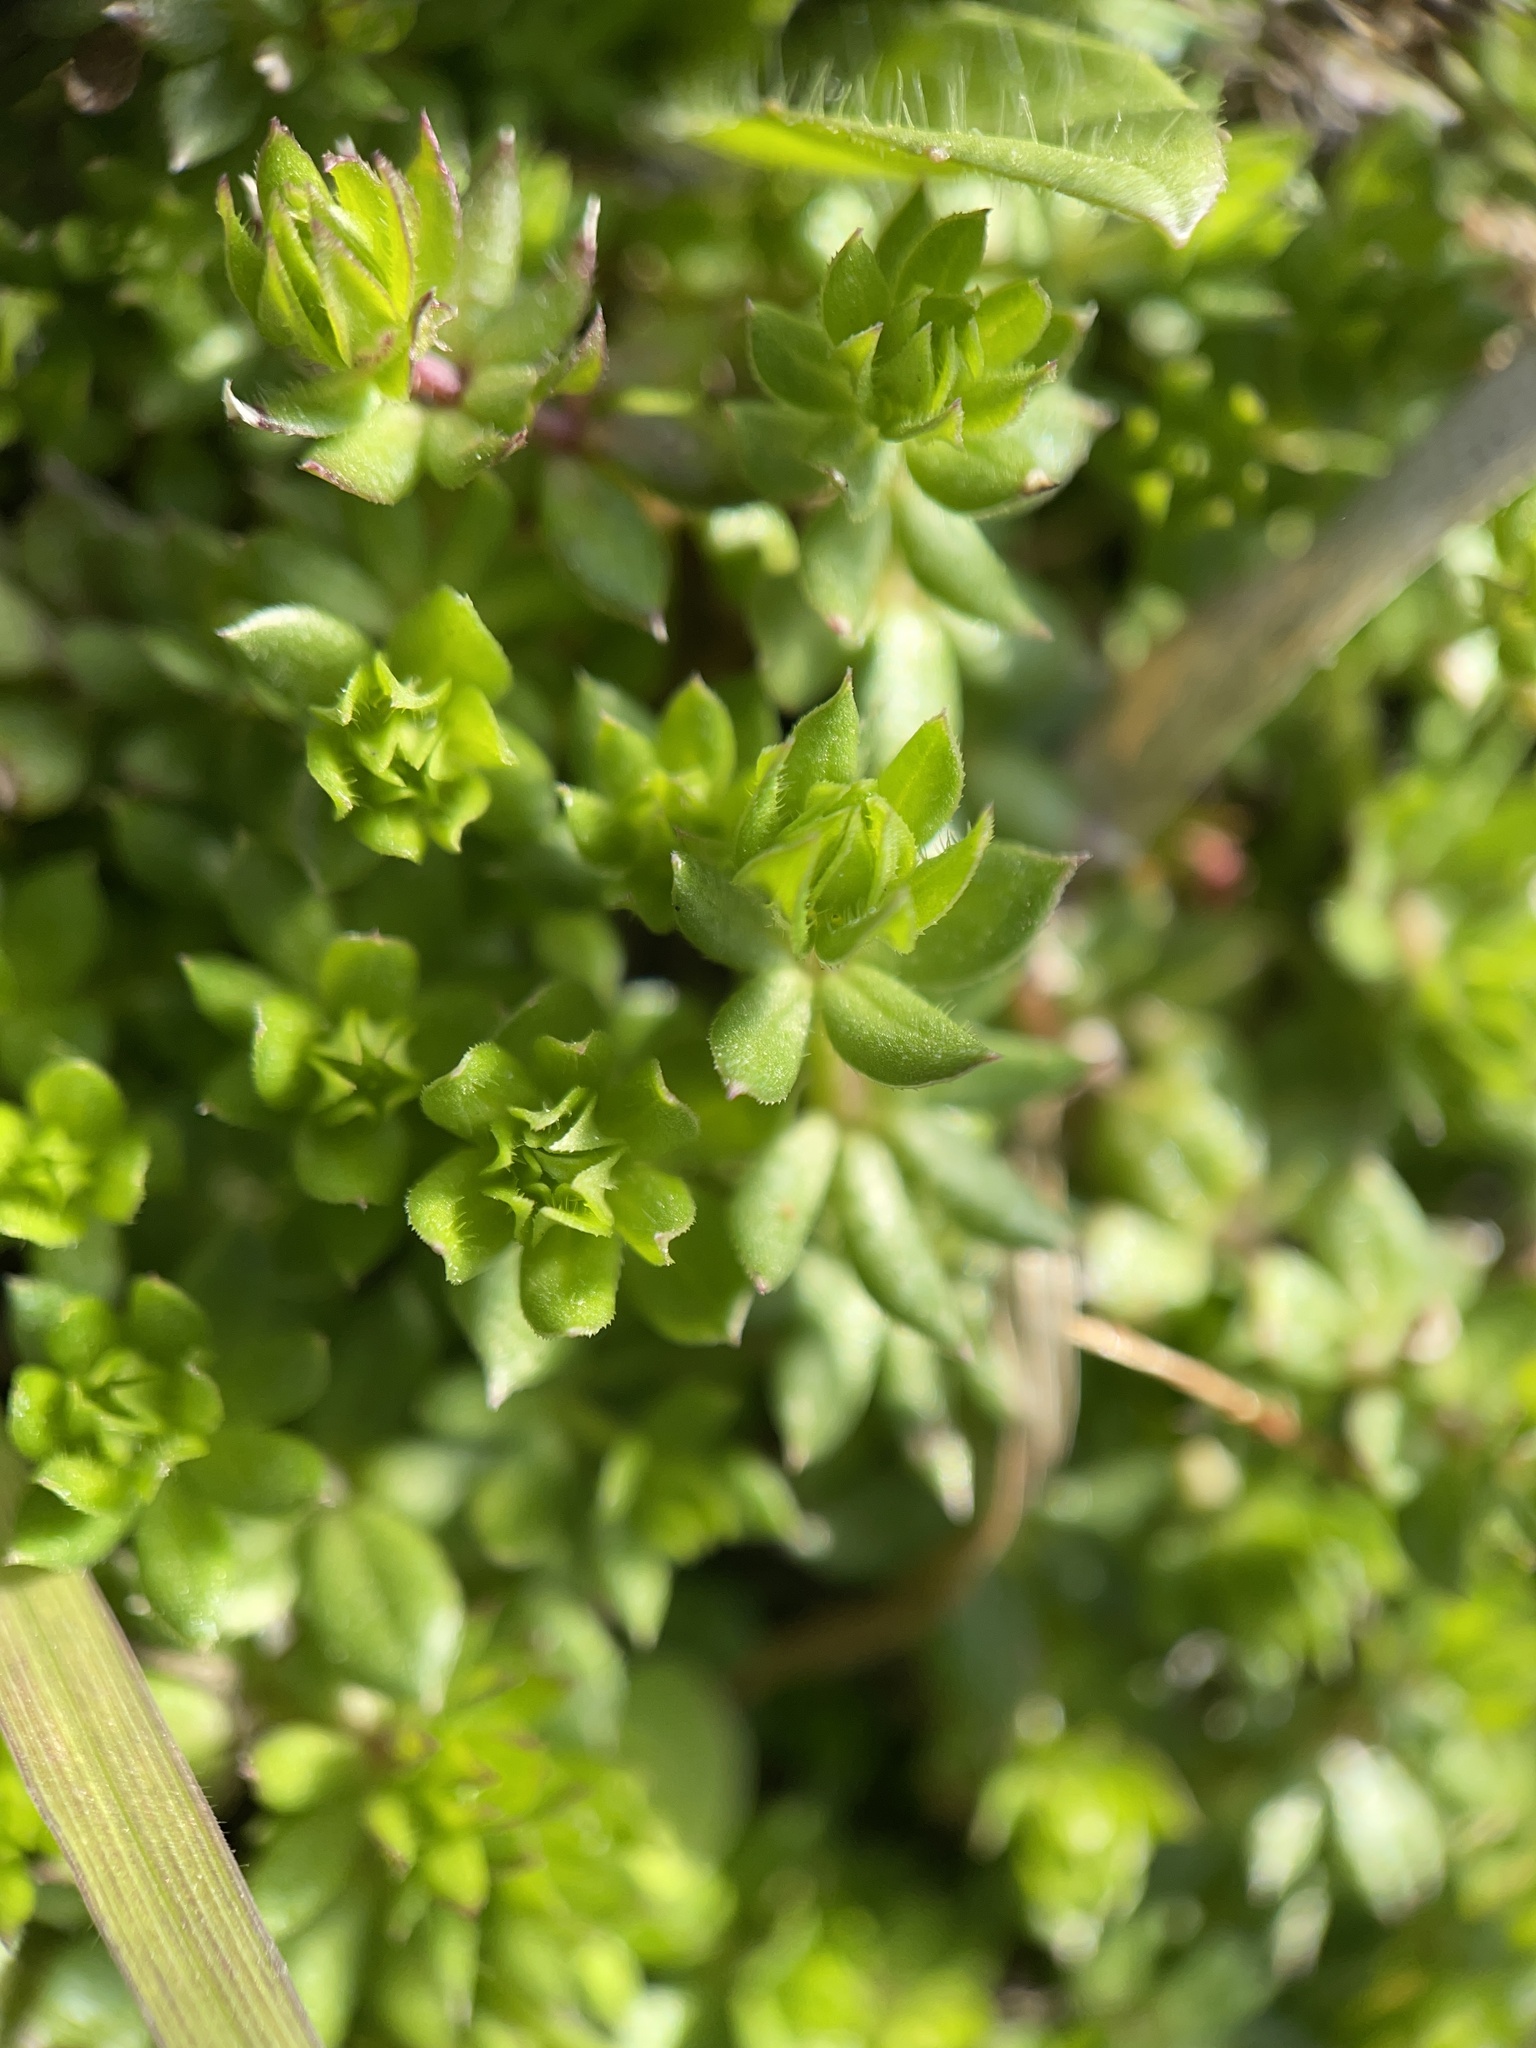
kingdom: Plantae
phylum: Tracheophyta
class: Magnoliopsida
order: Gentianales
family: Rubiaceae
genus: Sherardia
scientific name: Sherardia arvensis
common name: Field madder
